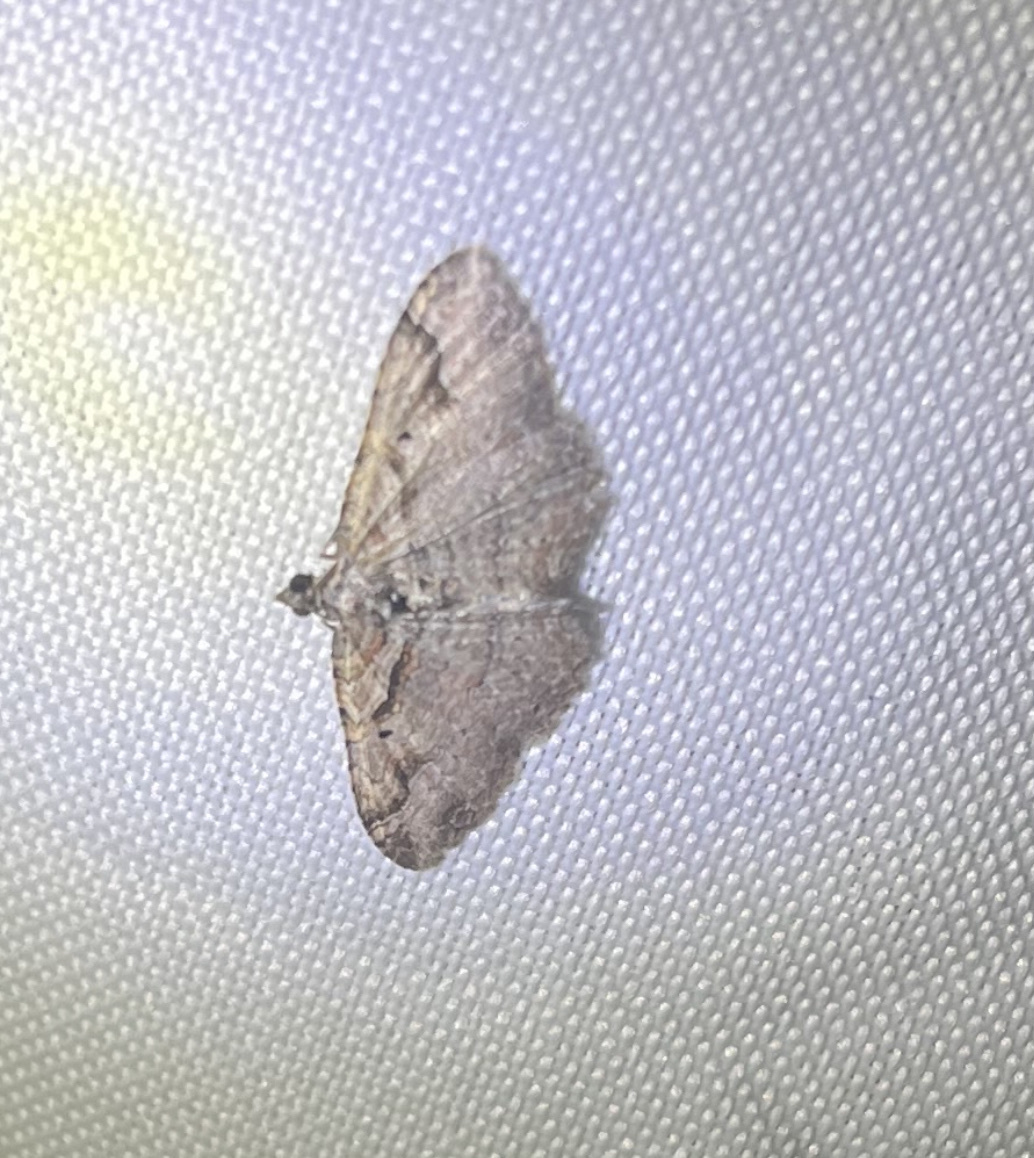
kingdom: Animalia
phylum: Arthropoda
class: Insecta
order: Lepidoptera
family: Geometridae
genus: Costaconvexa
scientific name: Costaconvexa centrostrigaria
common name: Bent-line carpet
